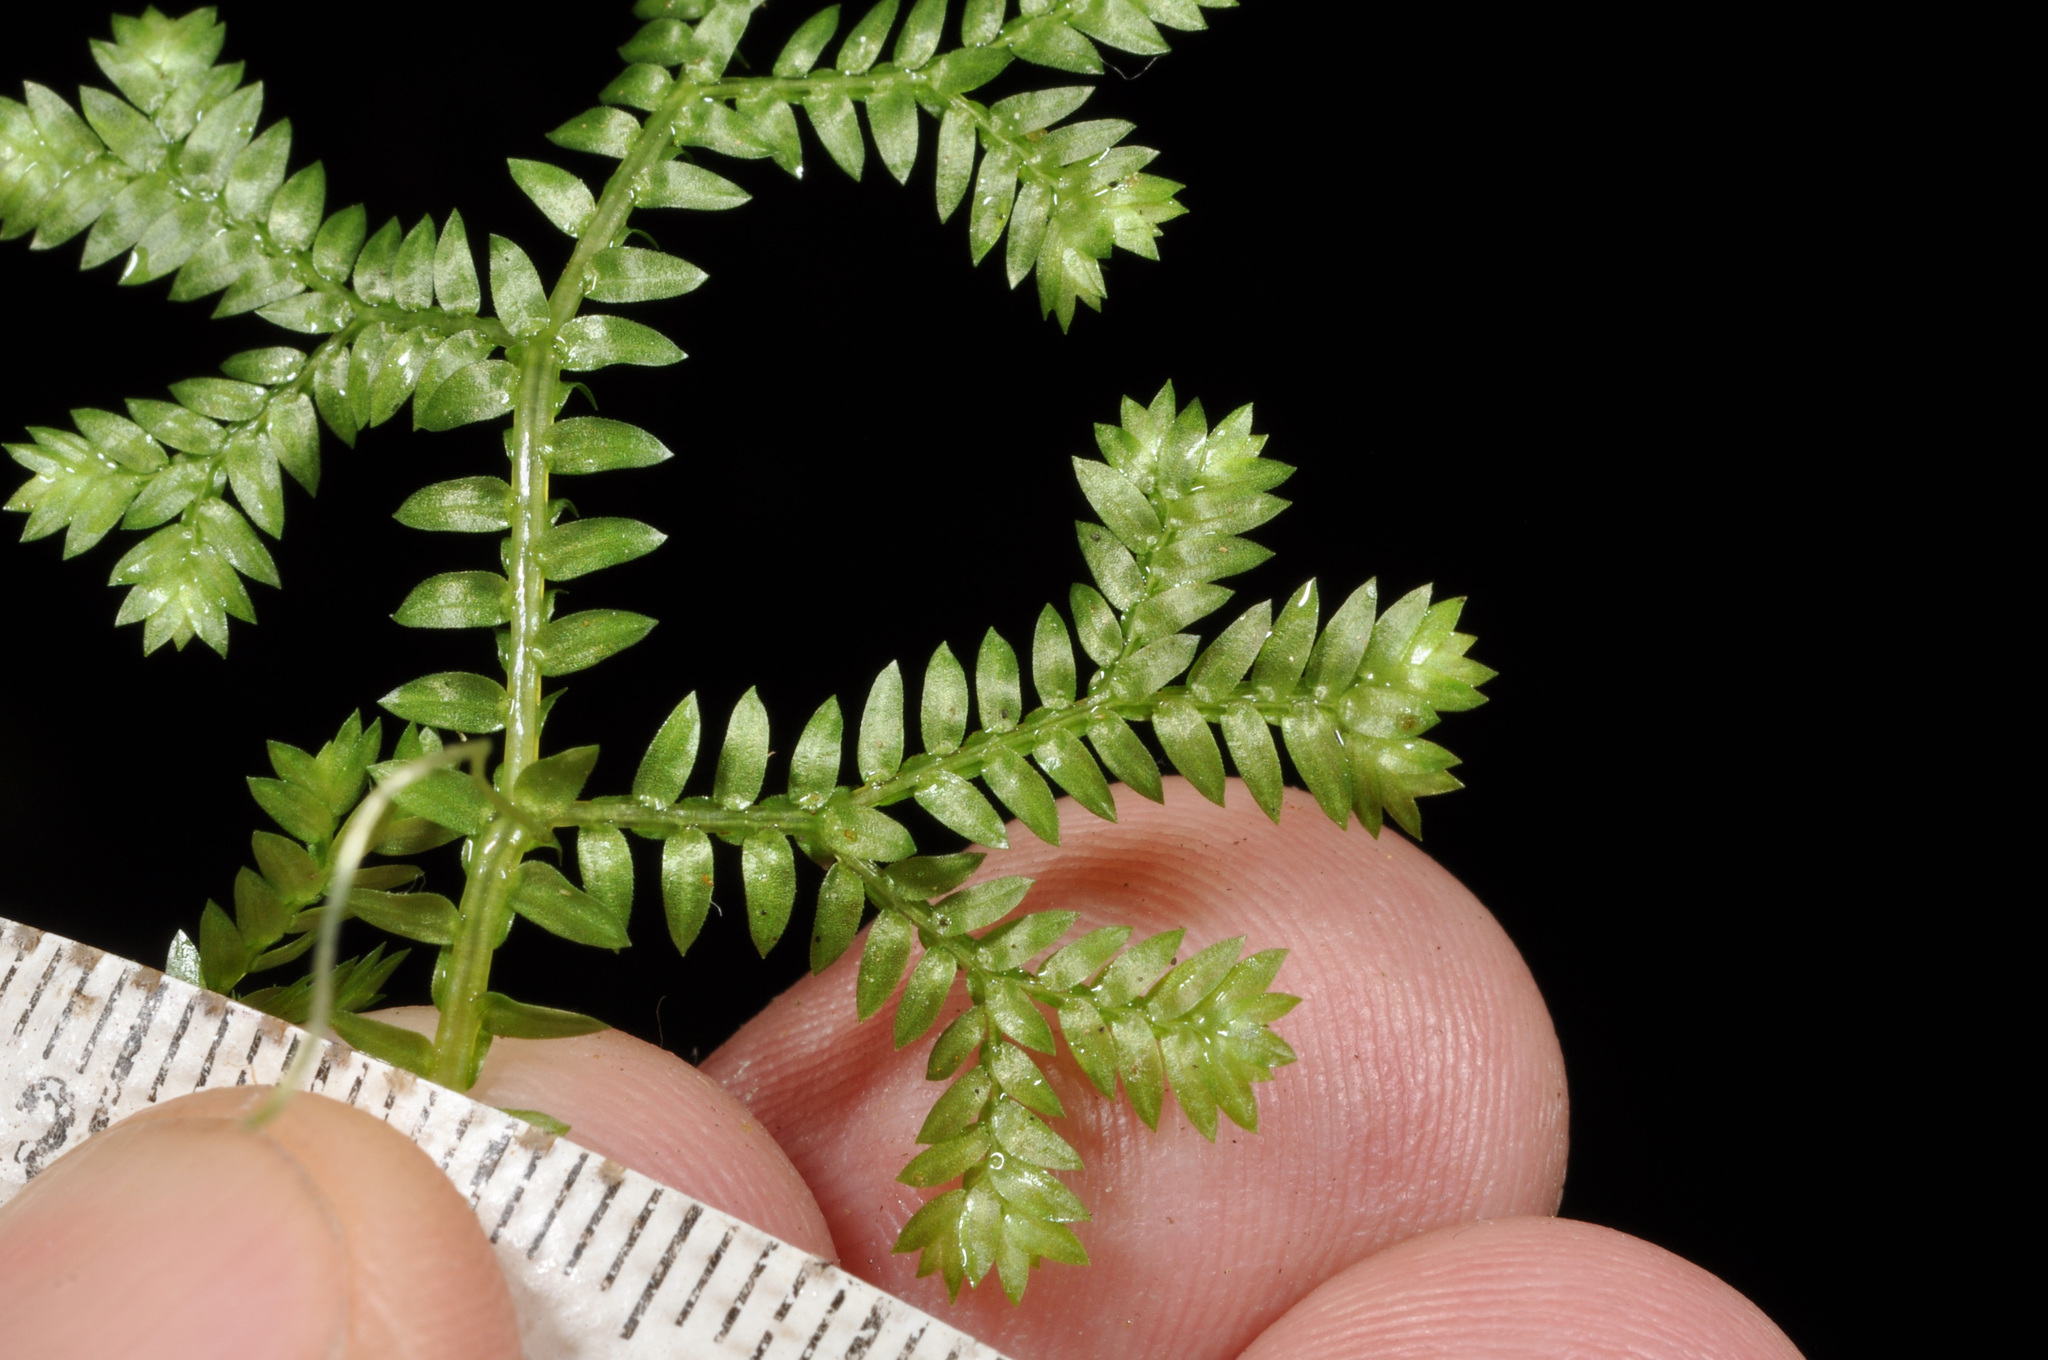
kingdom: Plantae
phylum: Tracheophyta
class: Lycopodiopsida
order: Selaginellales
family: Selaginellaceae
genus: Selaginella
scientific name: Selaginella kraussiana
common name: Krauss' spikemoss
